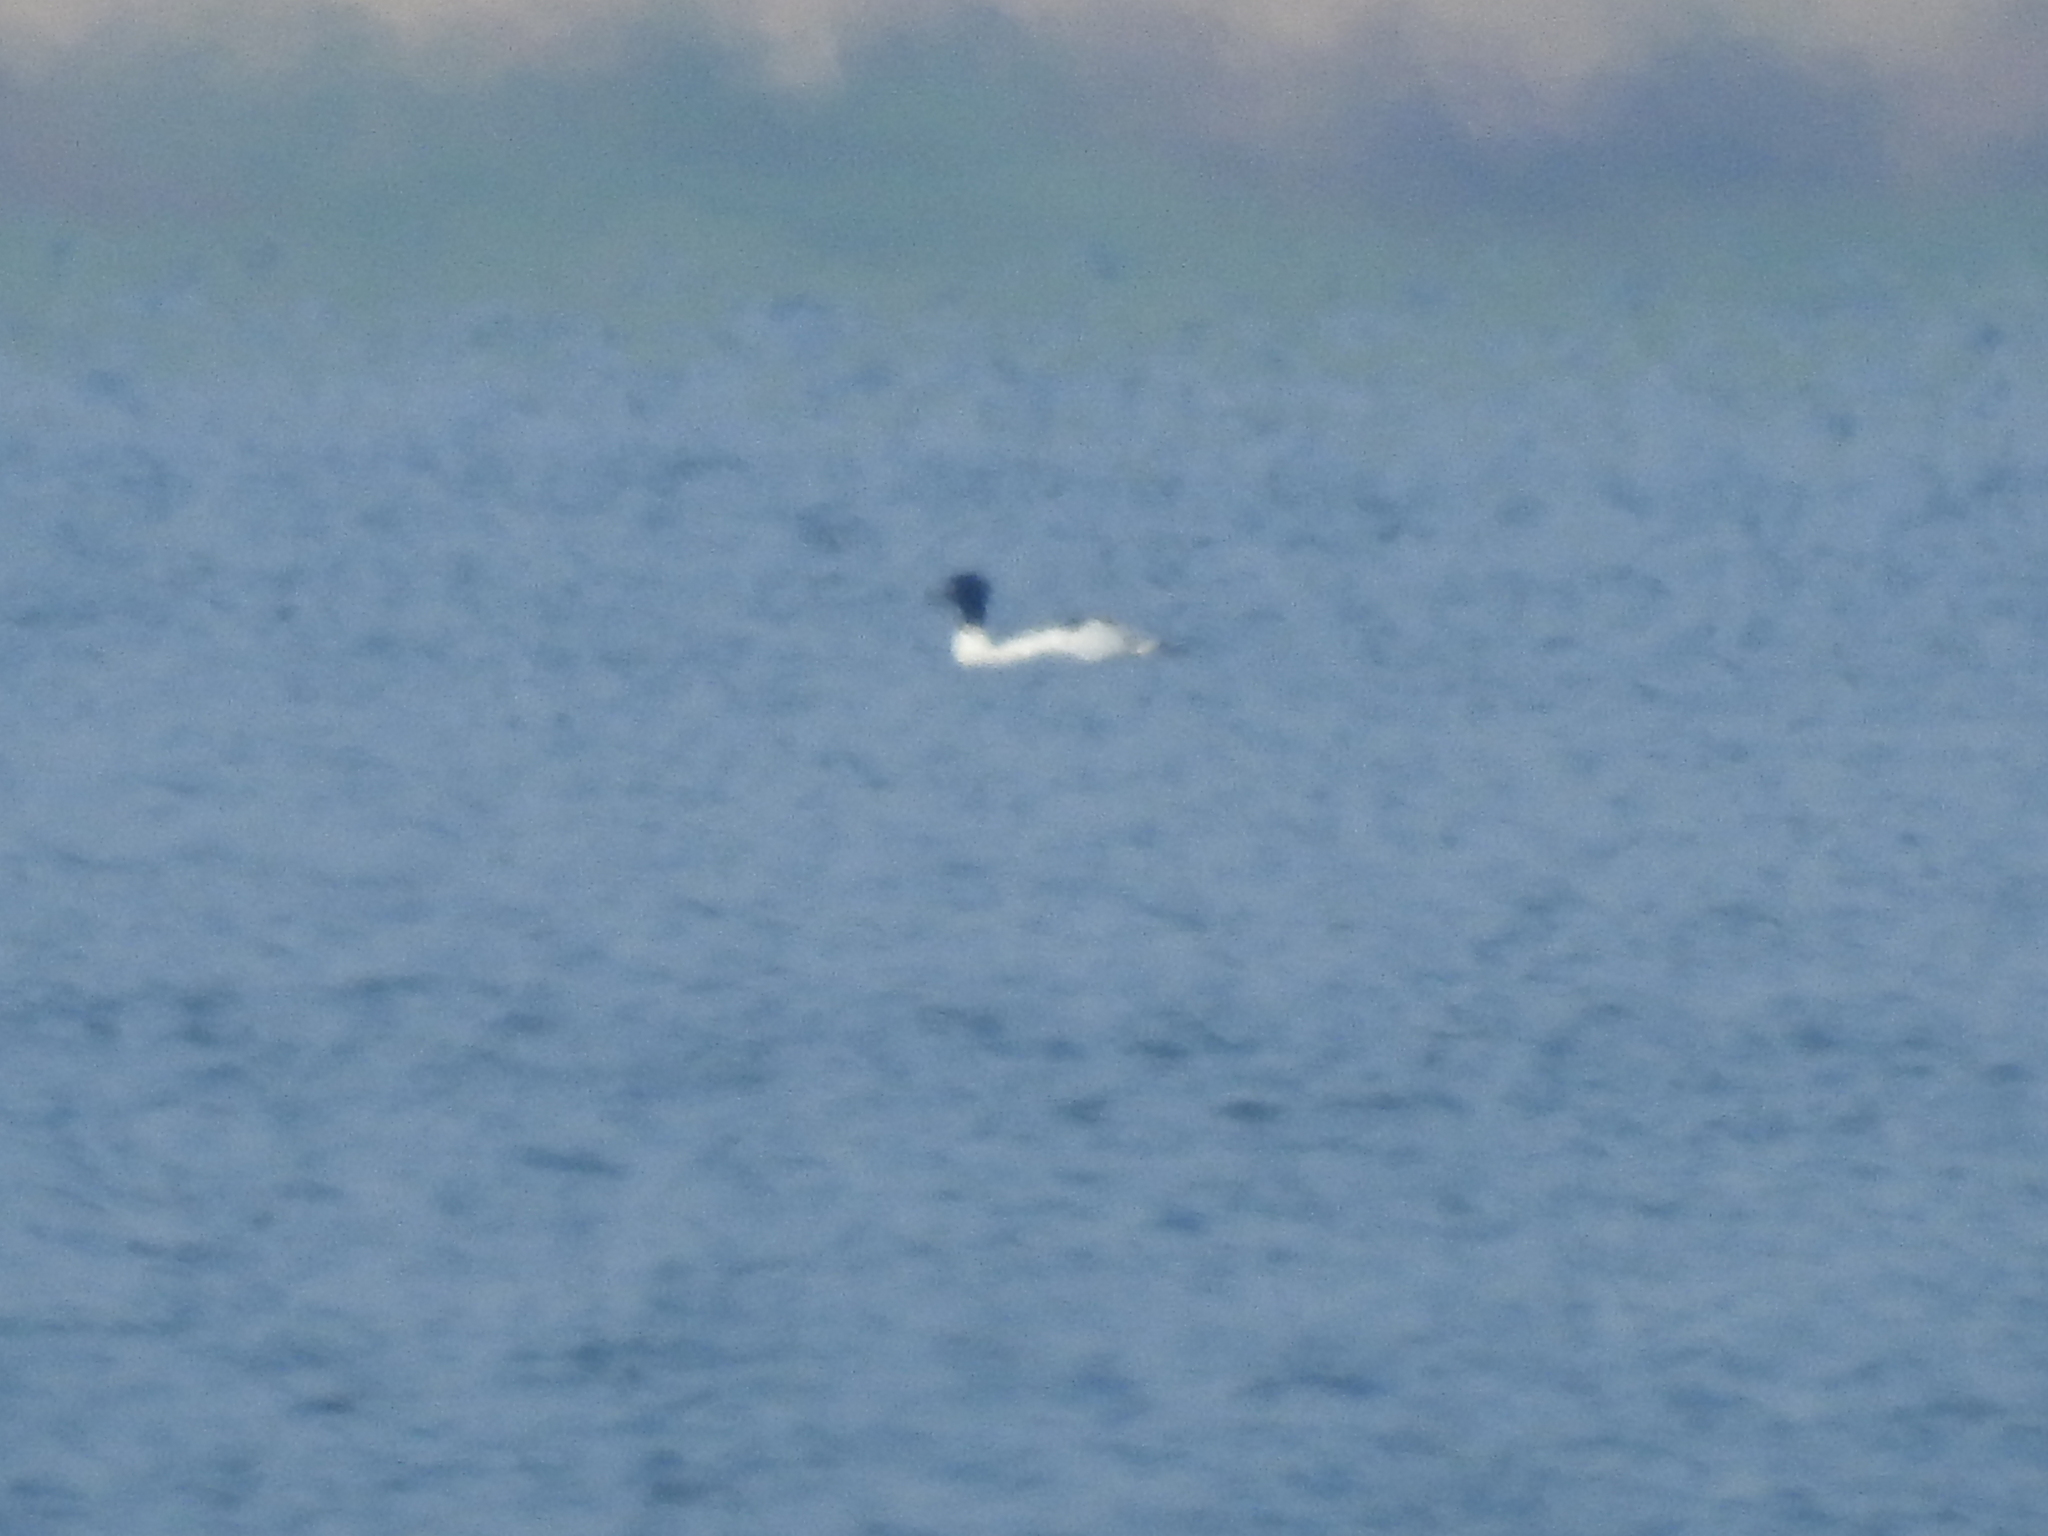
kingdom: Animalia
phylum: Chordata
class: Aves
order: Anseriformes
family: Anatidae
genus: Mergus
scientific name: Mergus merganser
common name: Common merganser
